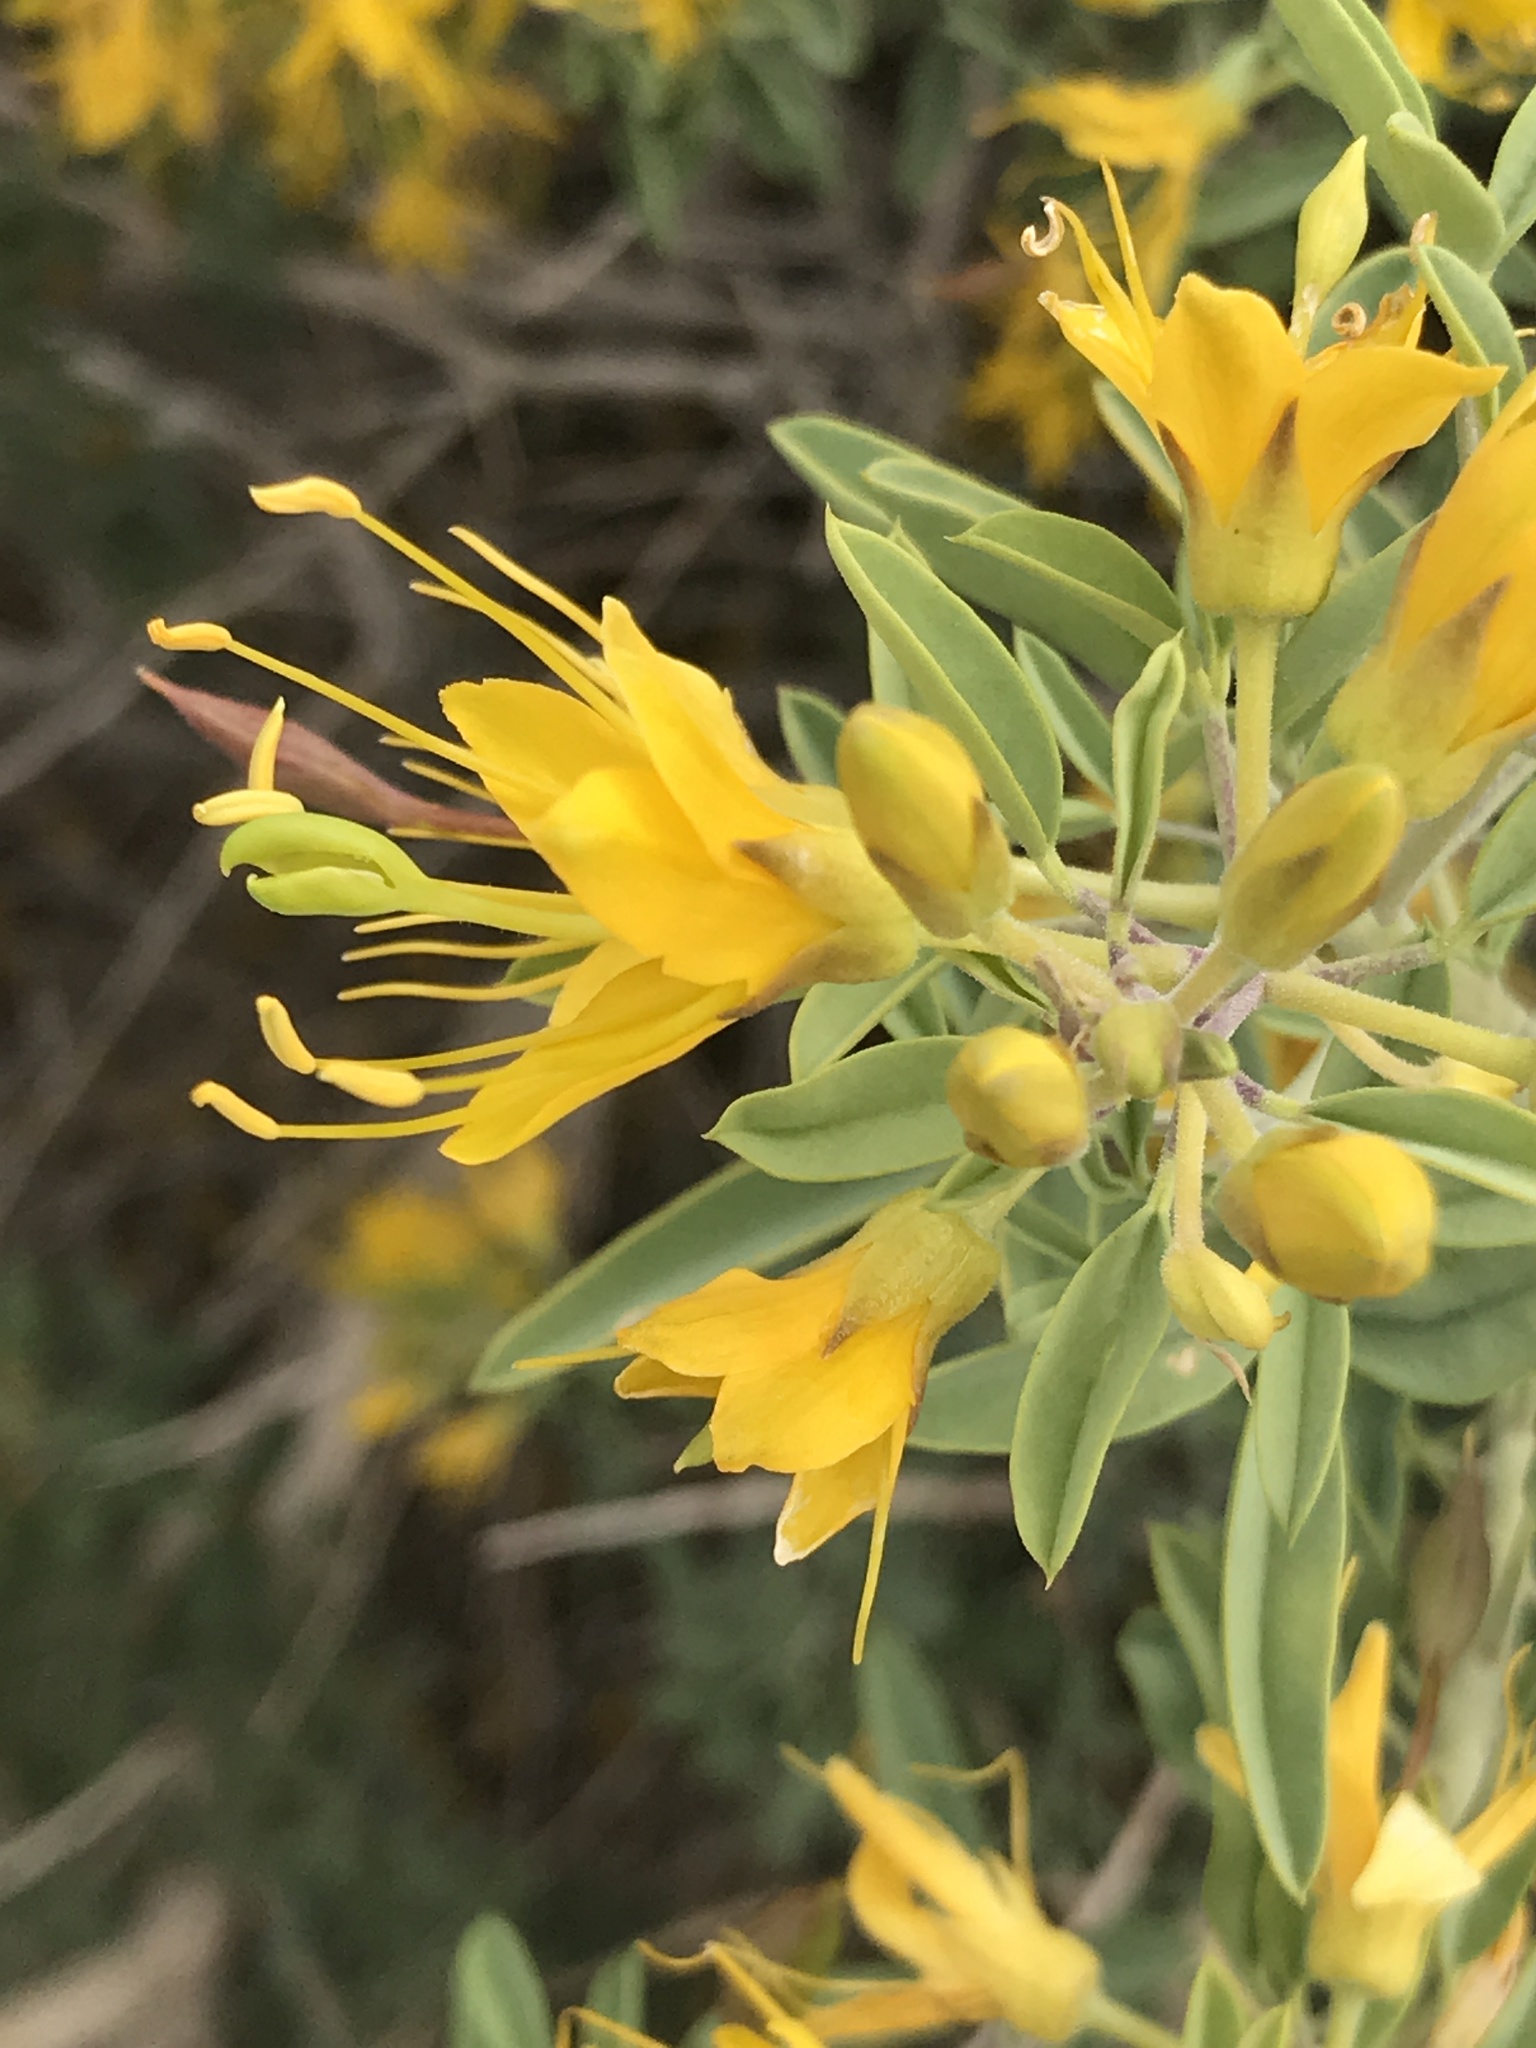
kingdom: Plantae
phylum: Tracheophyta
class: Magnoliopsida
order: Brassicales
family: Cleomaceae
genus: Cleomella
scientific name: Cleomella arborea
